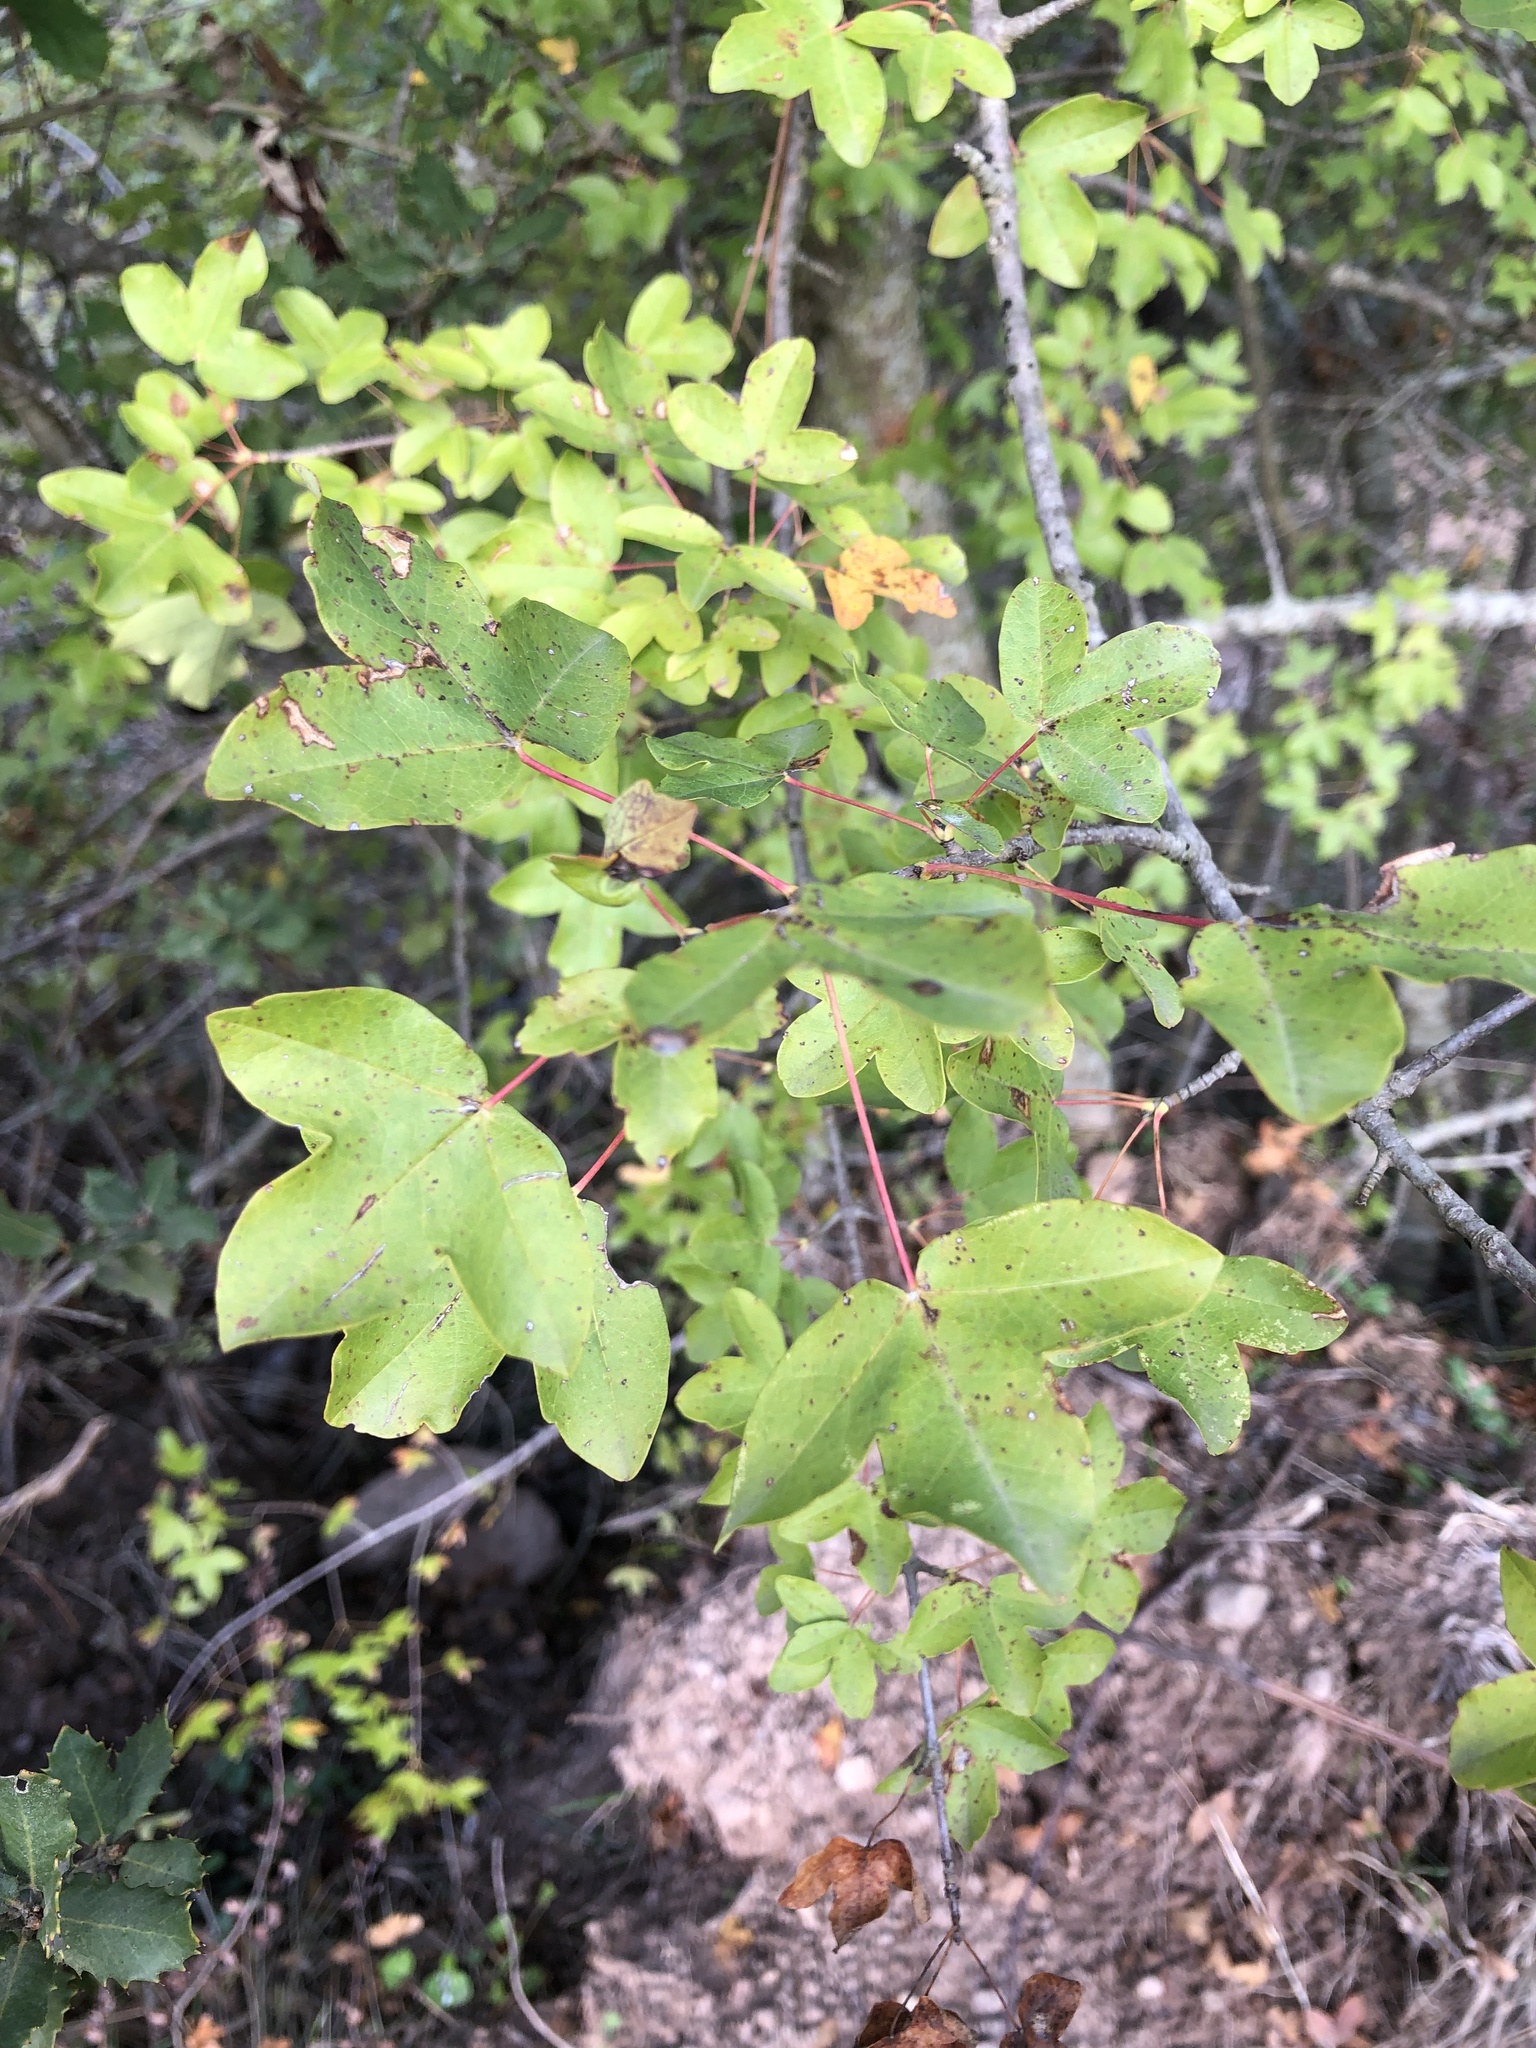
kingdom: Plantae
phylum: Tracheophyta
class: Magnoliopsida
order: Sapindales
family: Sapindaceae
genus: Acer
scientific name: Acer monspessulanum
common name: Montpellier maple
